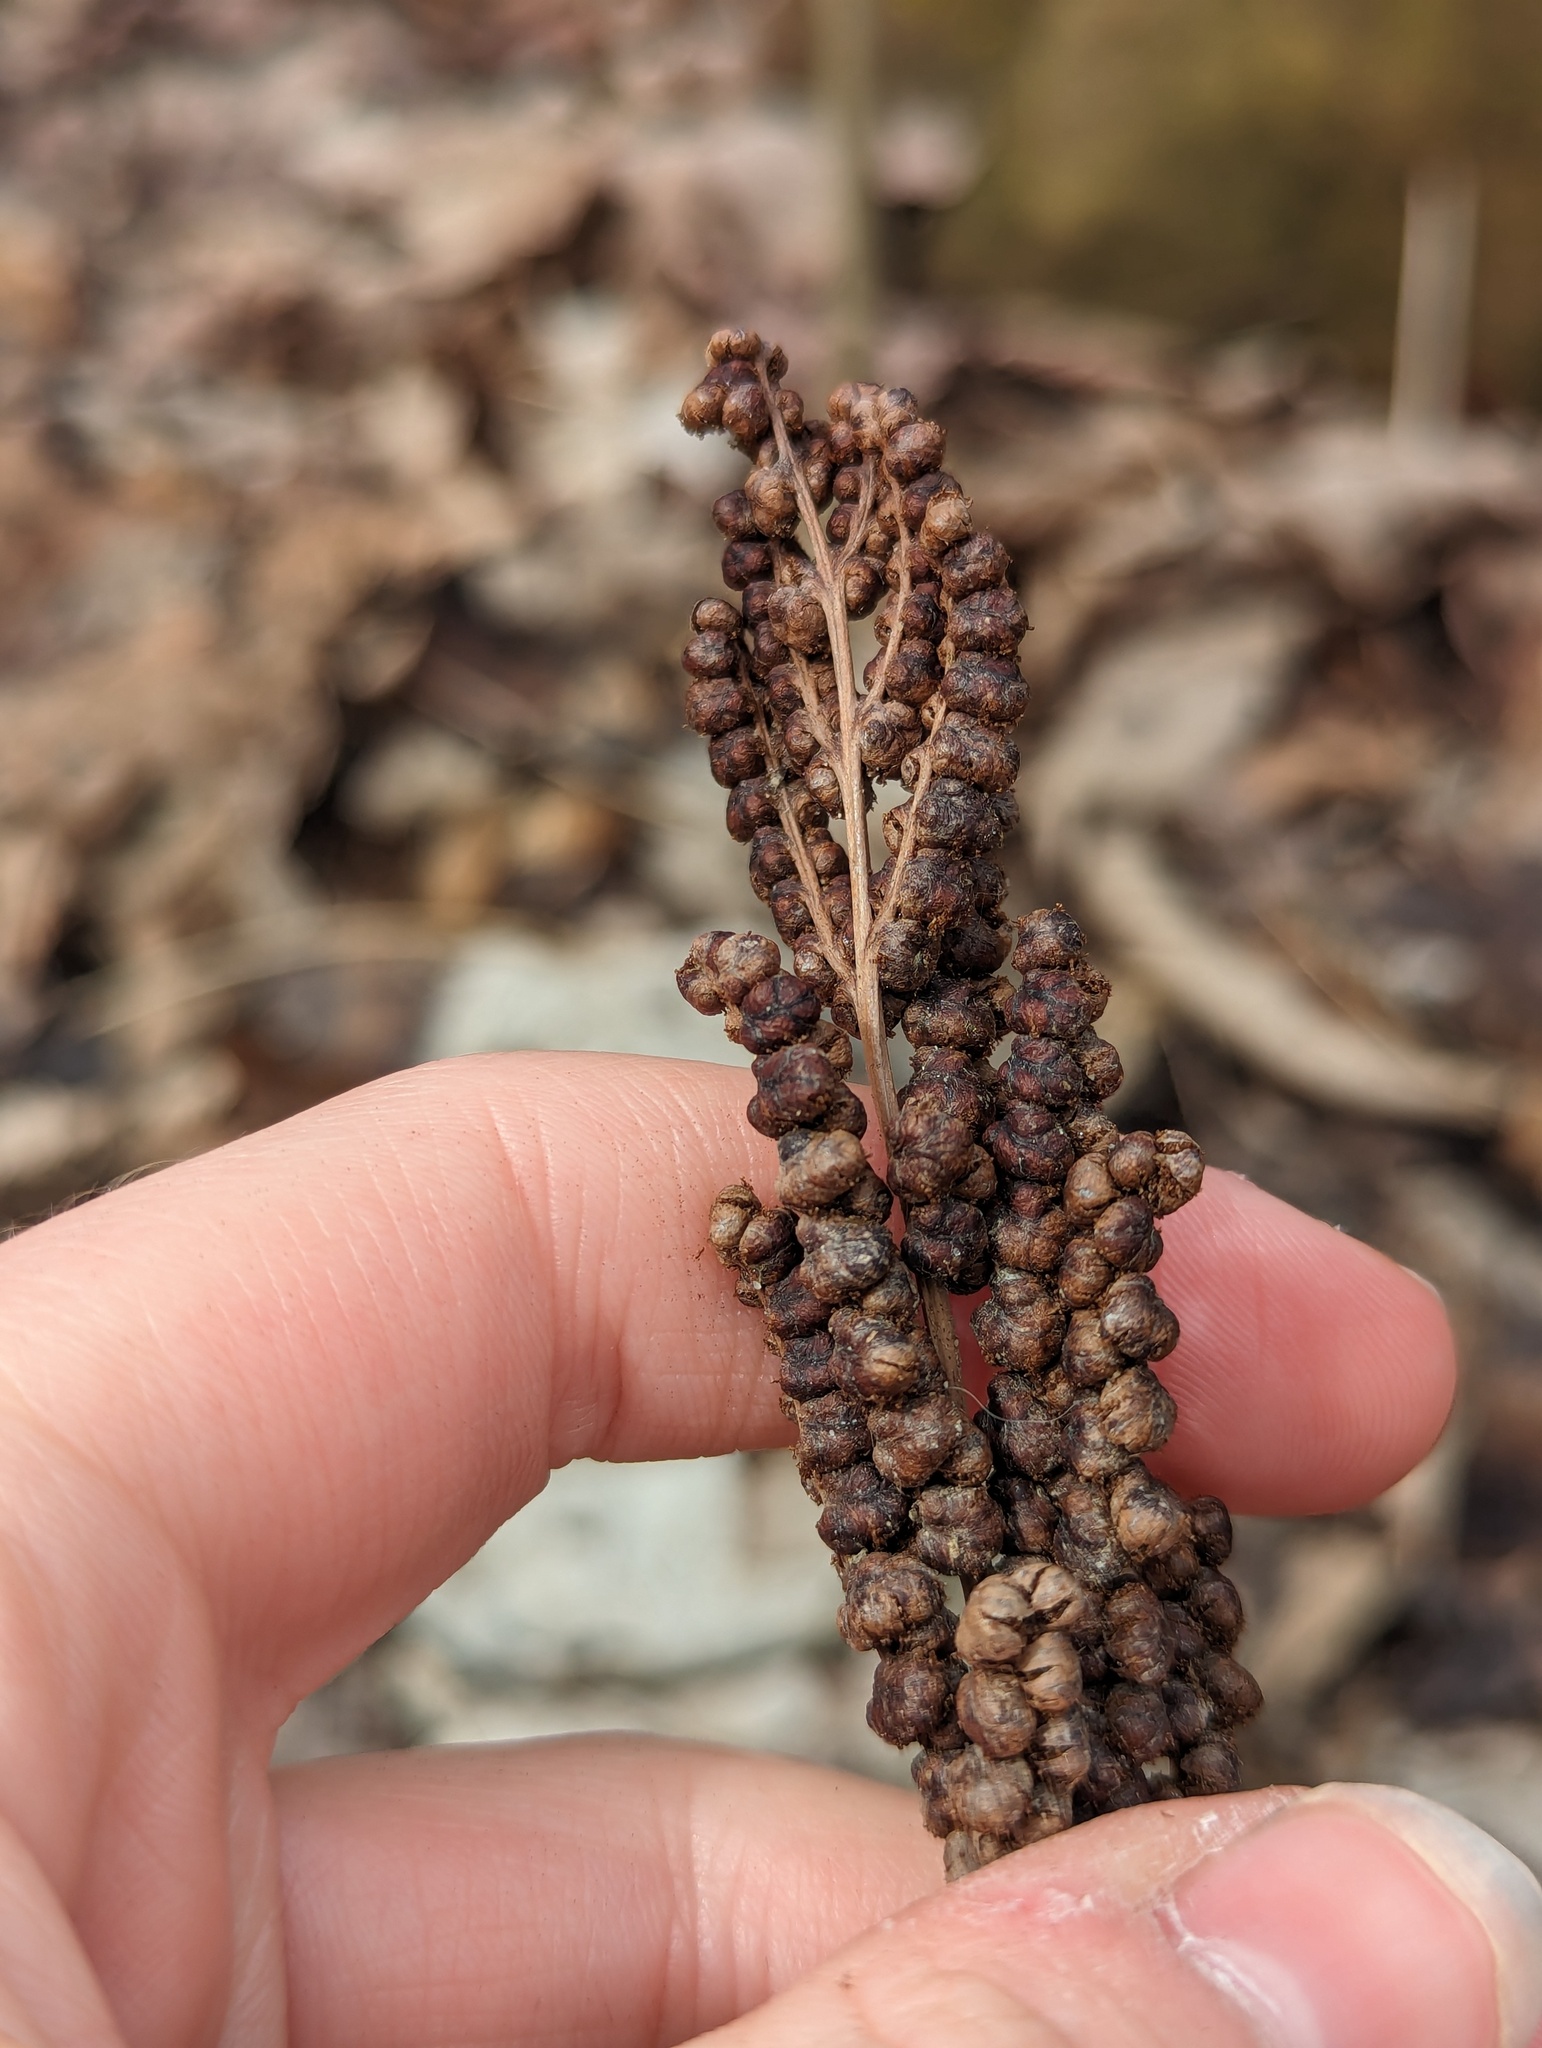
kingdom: Plantae
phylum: Tracheophyta
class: Polypodiopsida
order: Polypodiales
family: Onocleaceae
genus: Onoclea
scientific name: Onoclea sensibilis
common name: Sensitive fern
